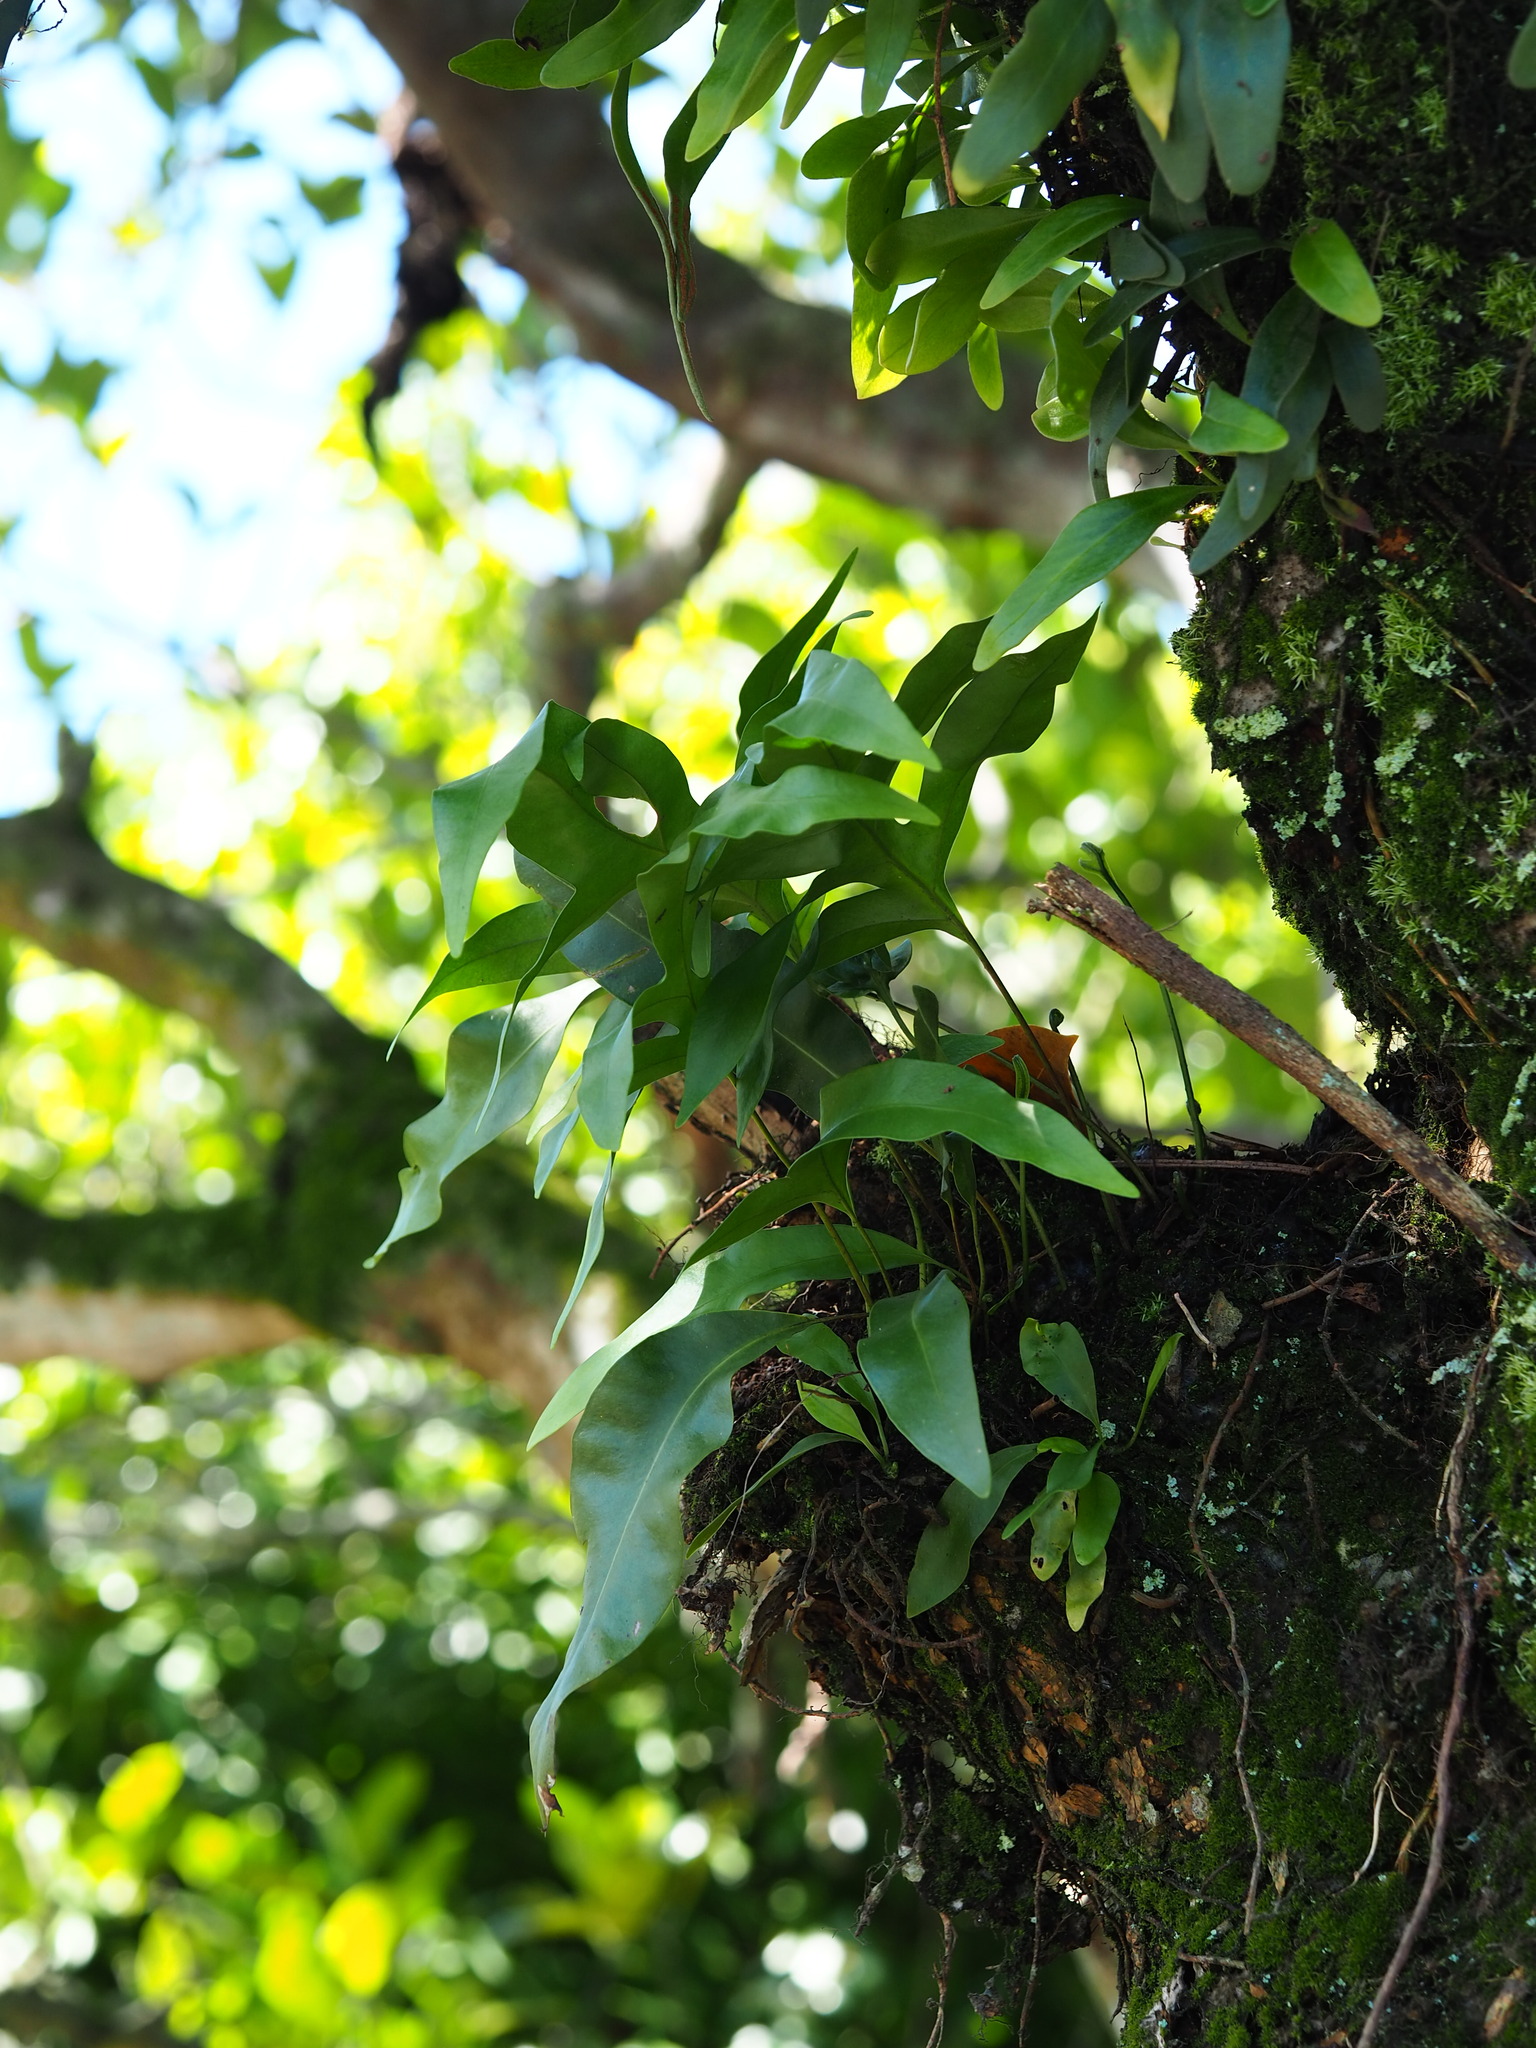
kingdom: Plantae
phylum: Tracheophyta
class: Polypodiopsida
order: Polypodiales
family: Polypodiaceae
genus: Microsorum
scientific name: Microsorum scolopendria
